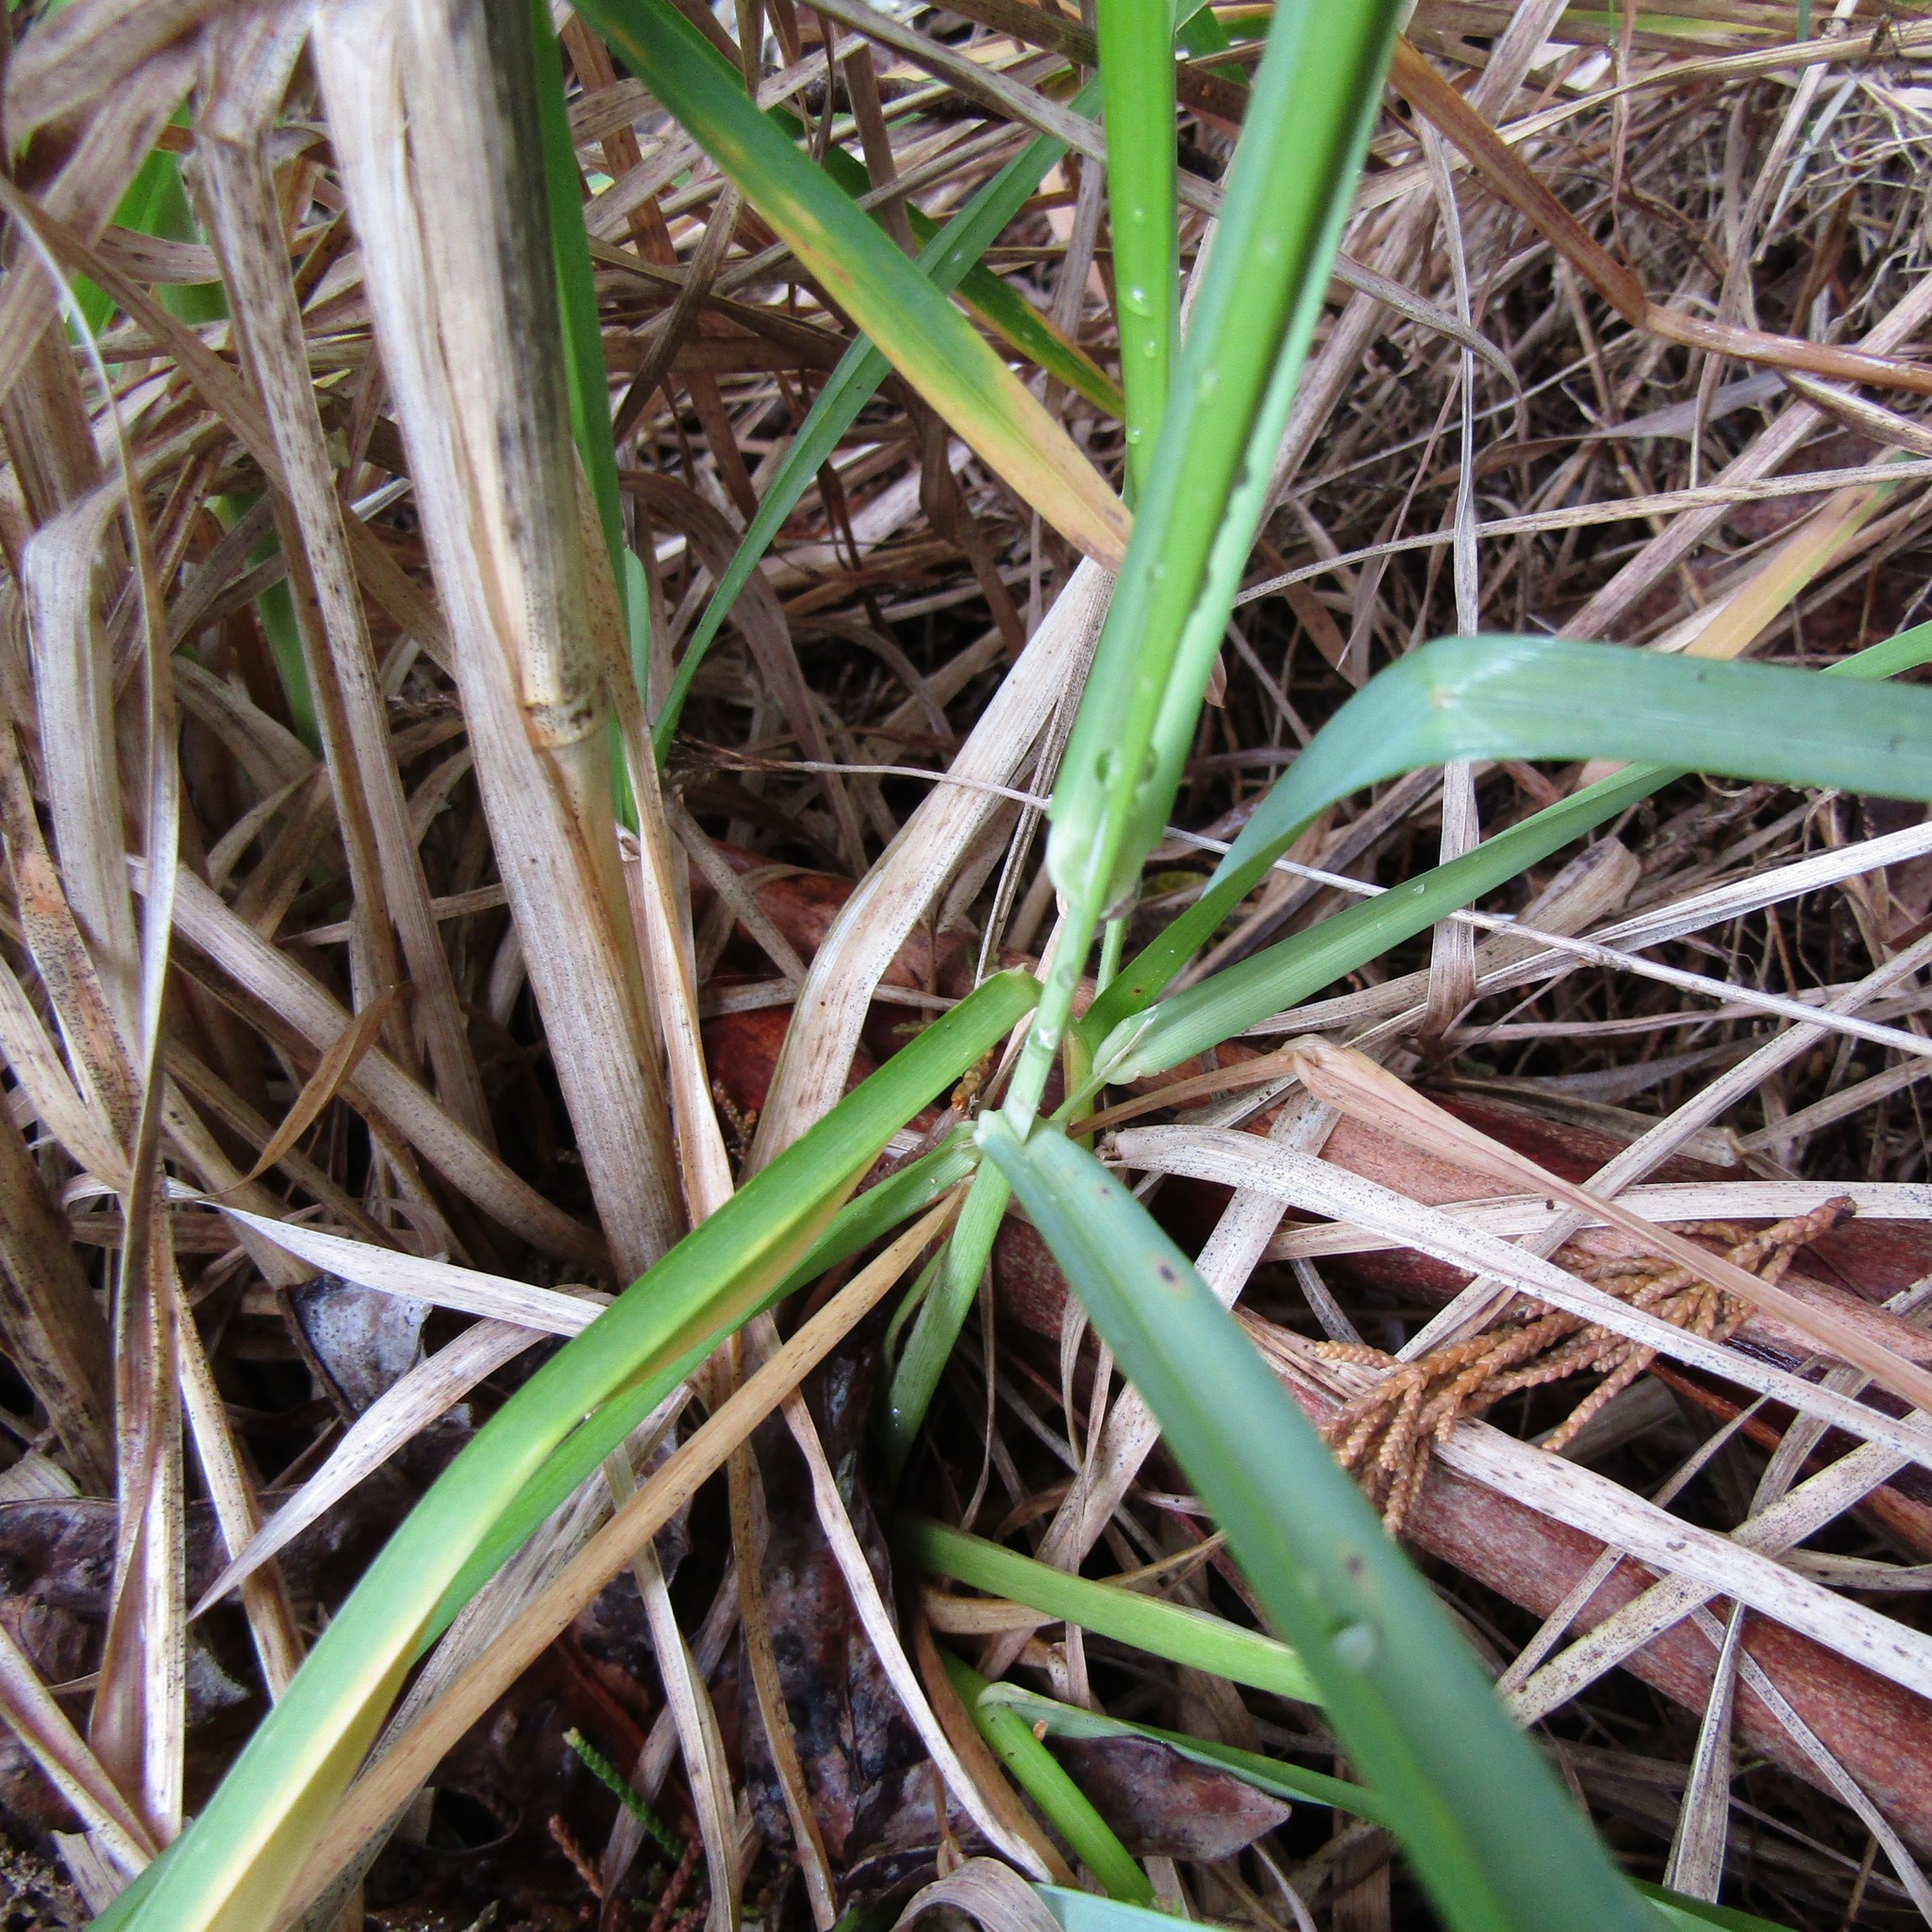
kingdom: Plantae
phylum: Tracheophyta
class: Liliopsida
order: Poales
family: Poaceae
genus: Dactylis
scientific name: Dactylis glomerata
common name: Orchardgrass
